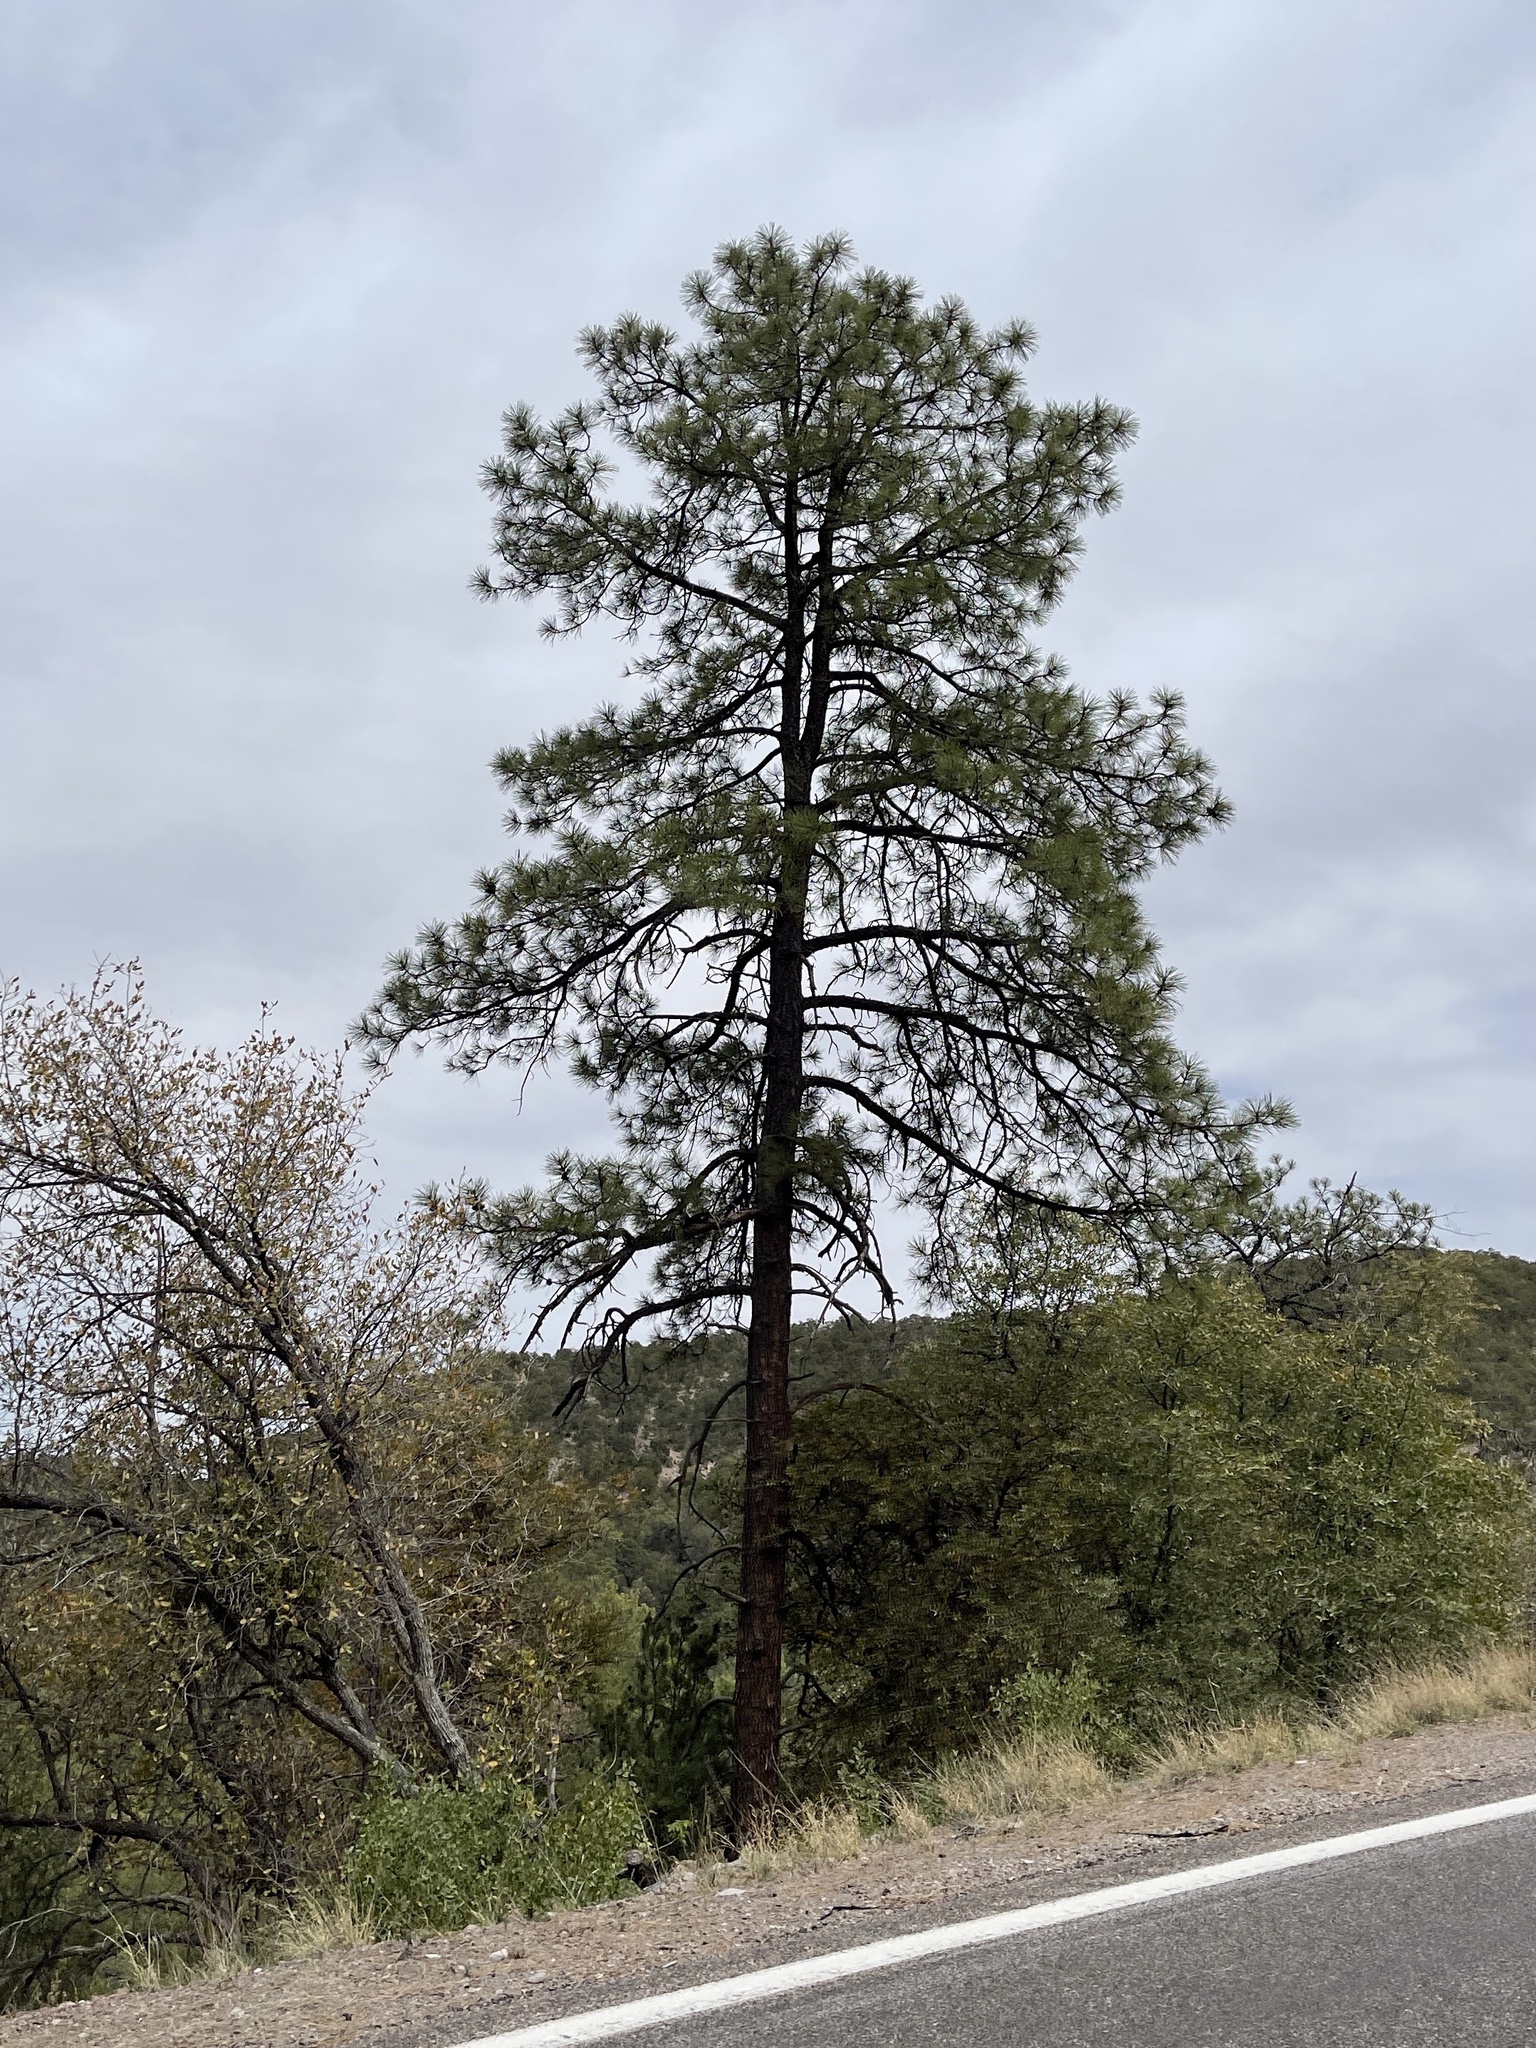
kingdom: Plantae
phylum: Tracheophyta
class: Pinopsida
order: Pinales
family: Pinaceae
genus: Pinus
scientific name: Pinus ponderosa
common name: Western yellow-pine
